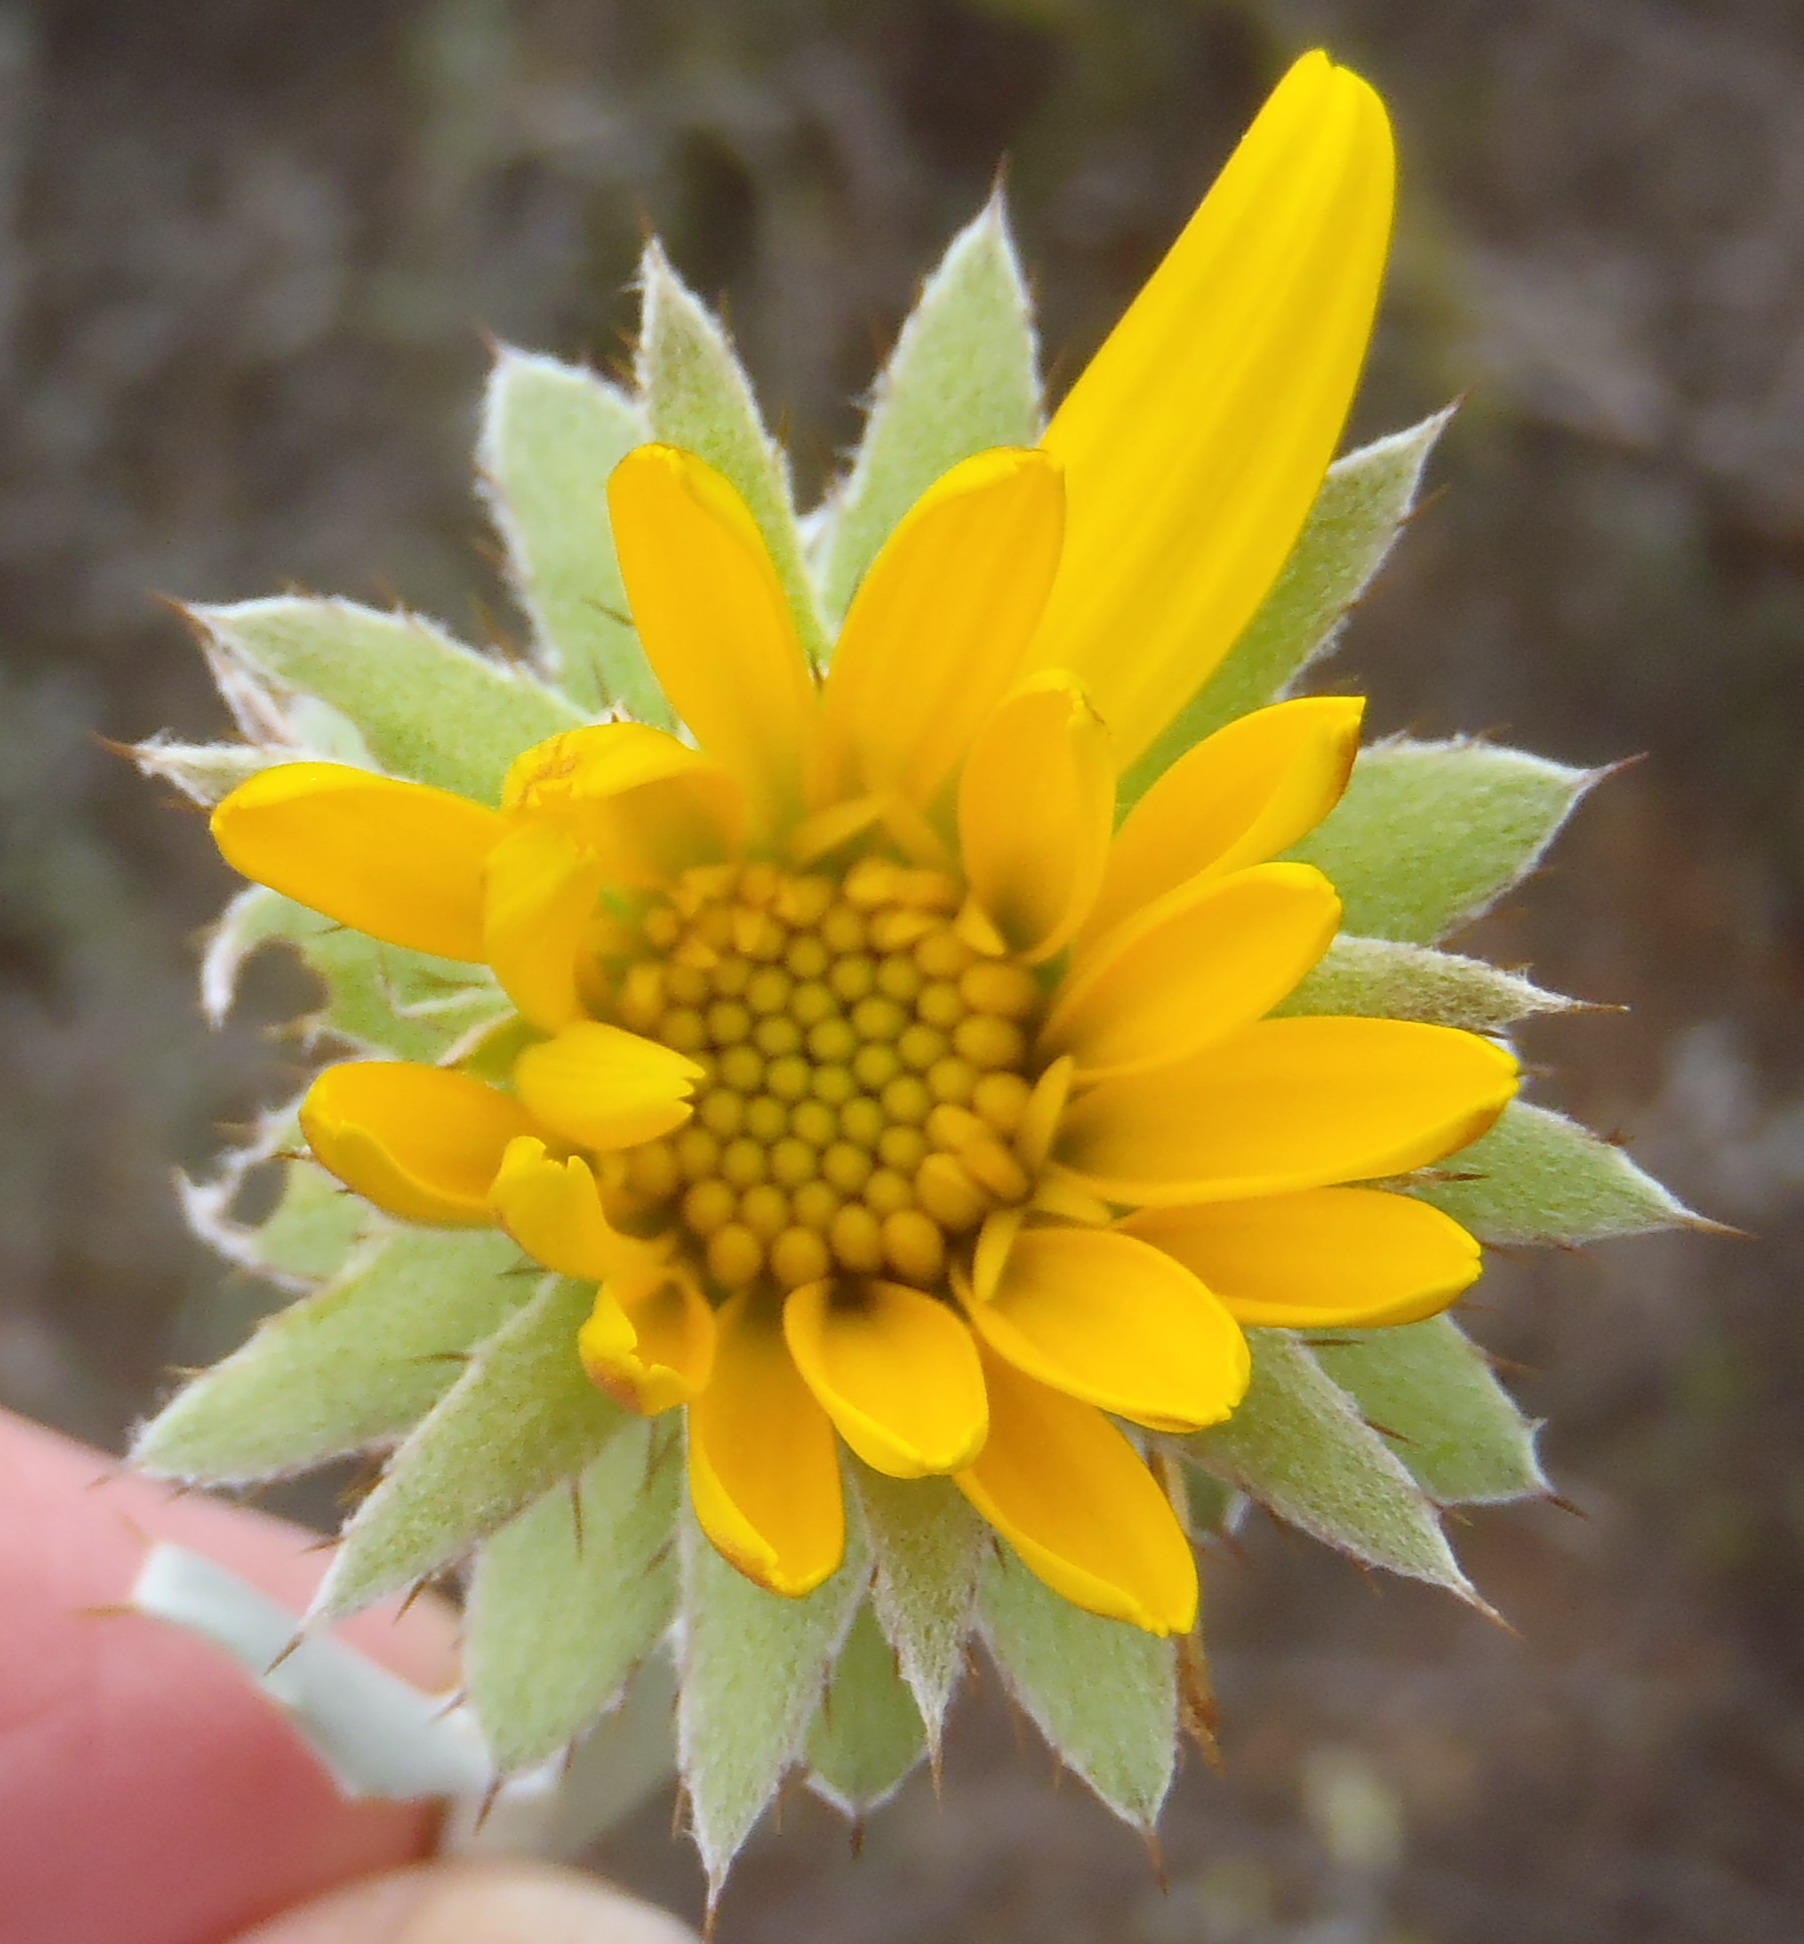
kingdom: Plantae
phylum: Tracheophyta
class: Magnoliopsida
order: Asterales
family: Asteraceae
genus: Berkheya
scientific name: Berkheya cuneata
